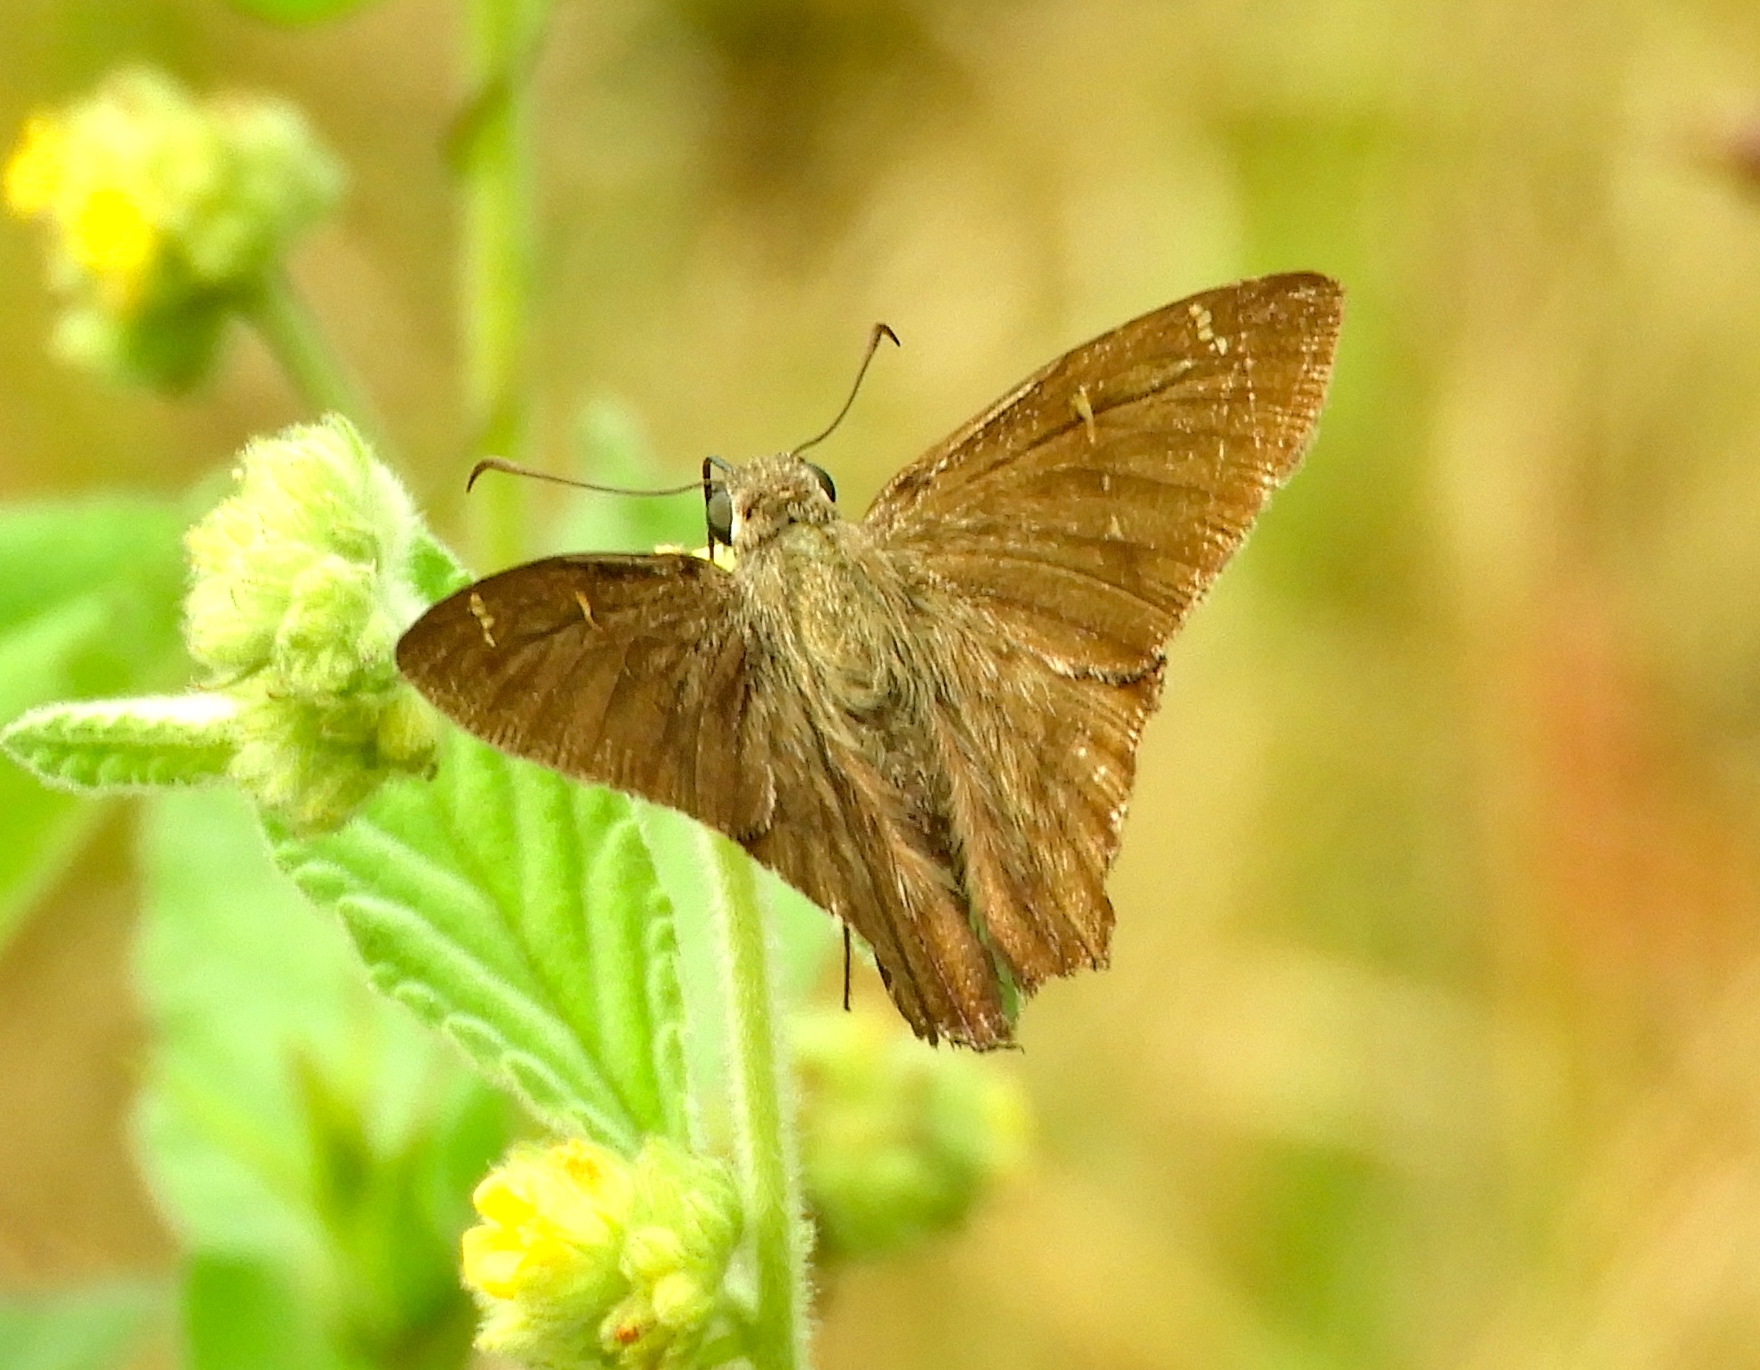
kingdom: Animalia
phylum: Arthropoda
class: Insecta
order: Lepidoptera
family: Hesperiidae
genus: Urbanus
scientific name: Urbanus procne
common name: Brown longtail
